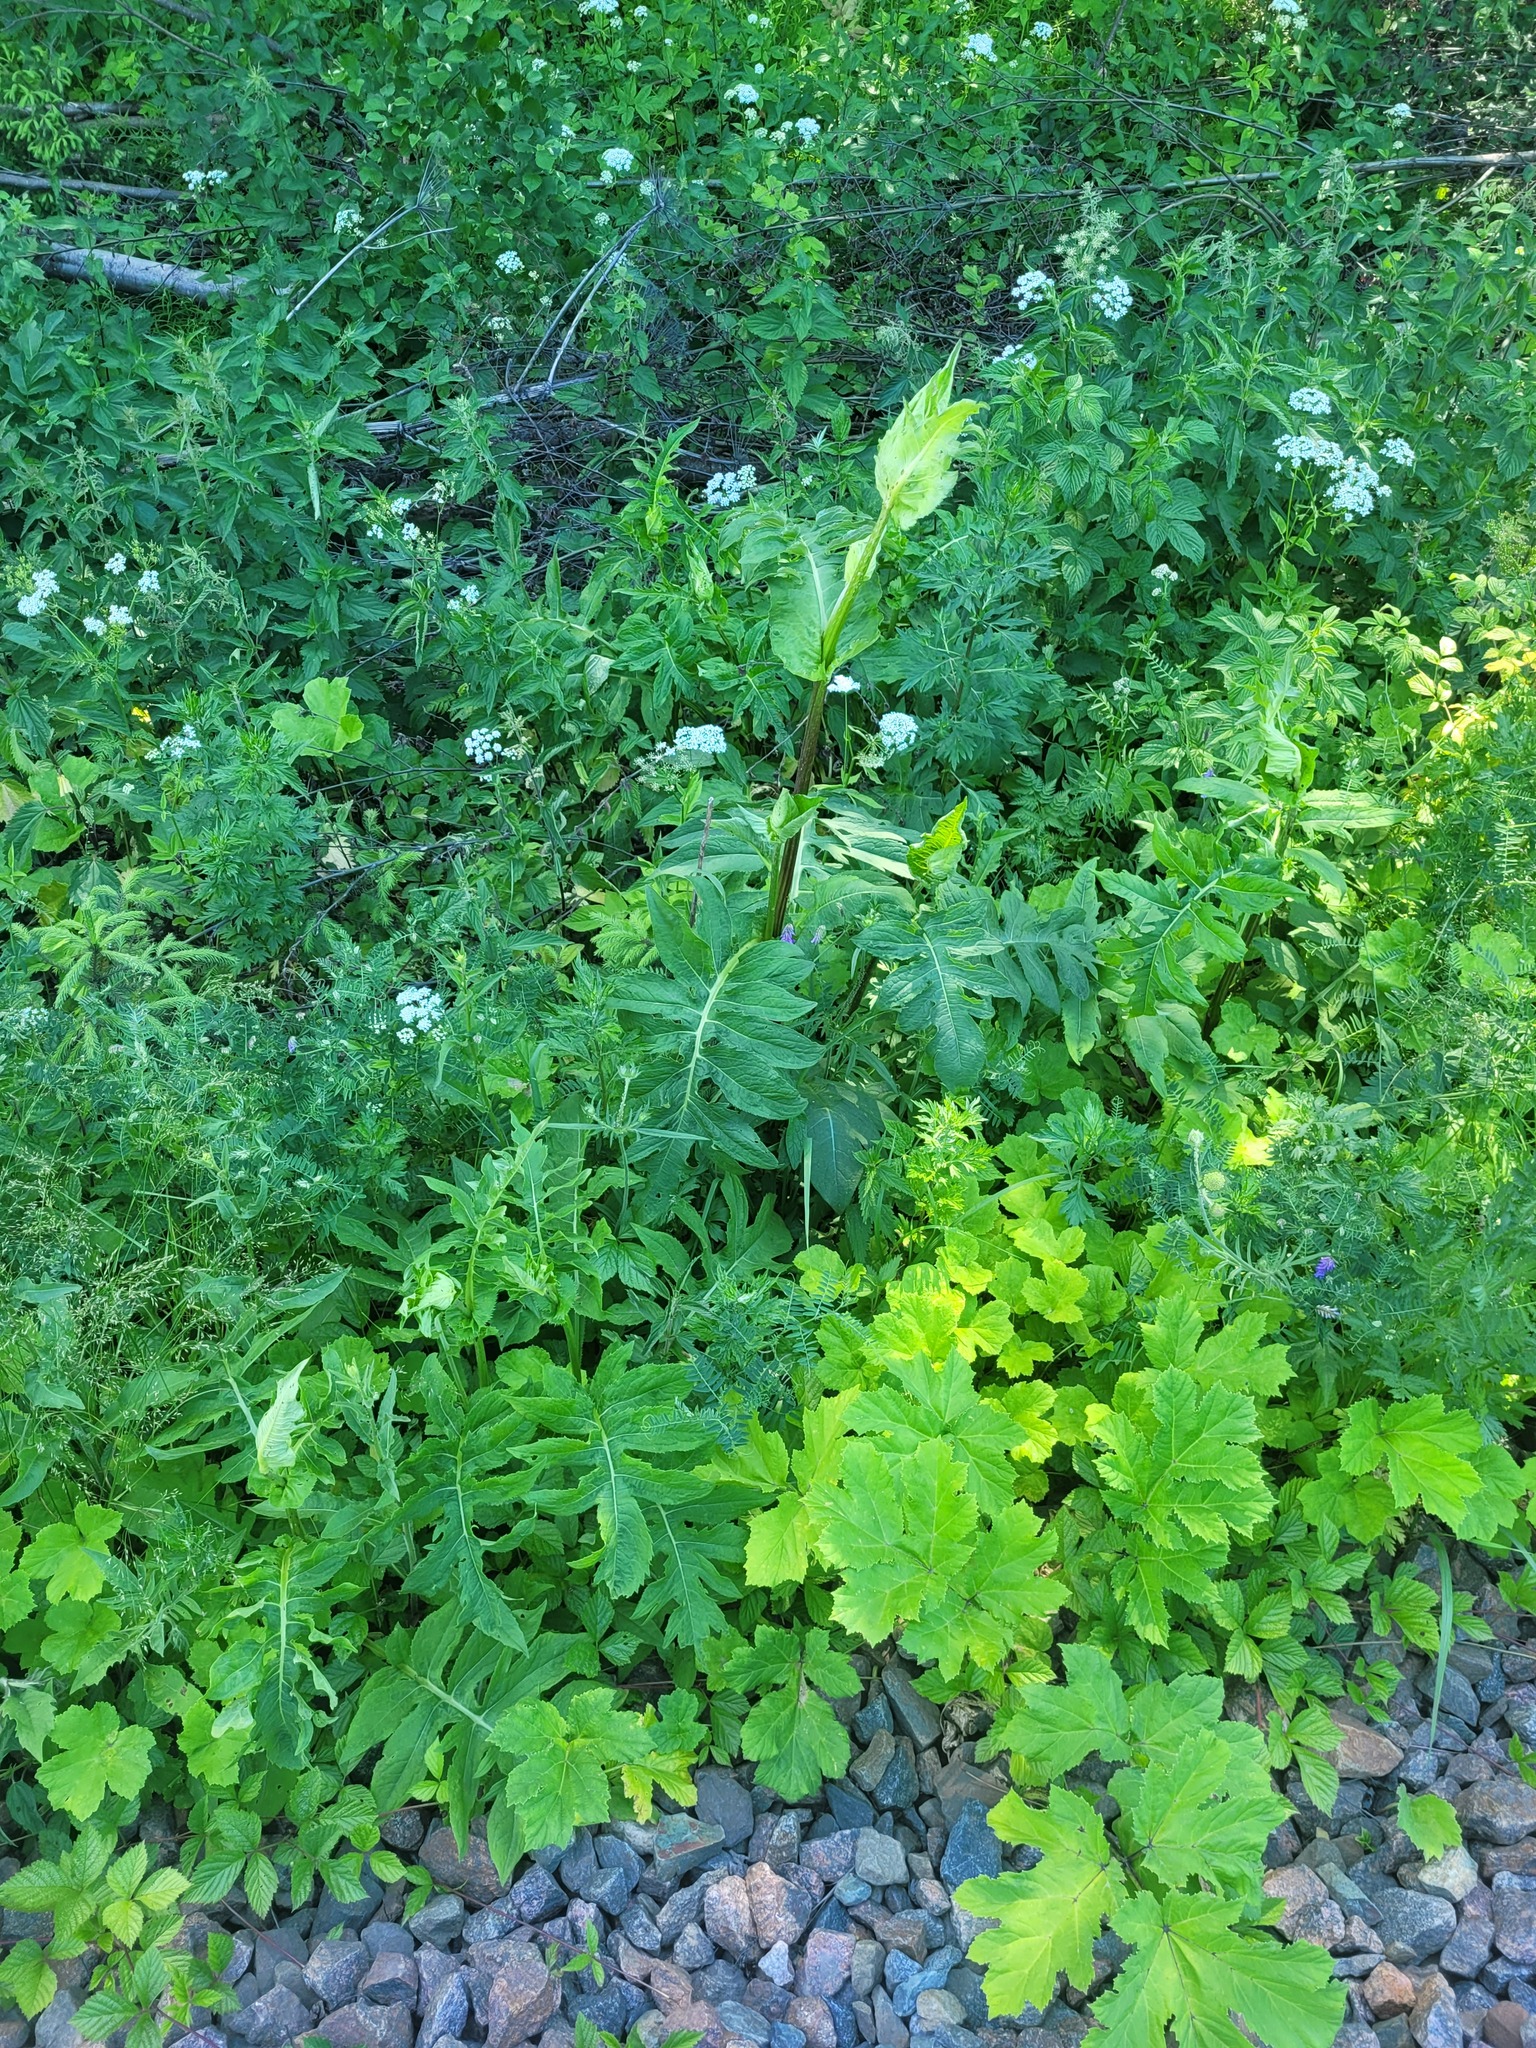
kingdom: Plantae
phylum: Tracheophyta
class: Magnoliopsida
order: Asterales
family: Asteraceae
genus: Cirsium
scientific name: Cirsium oleraceum
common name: Cabbage thistle
